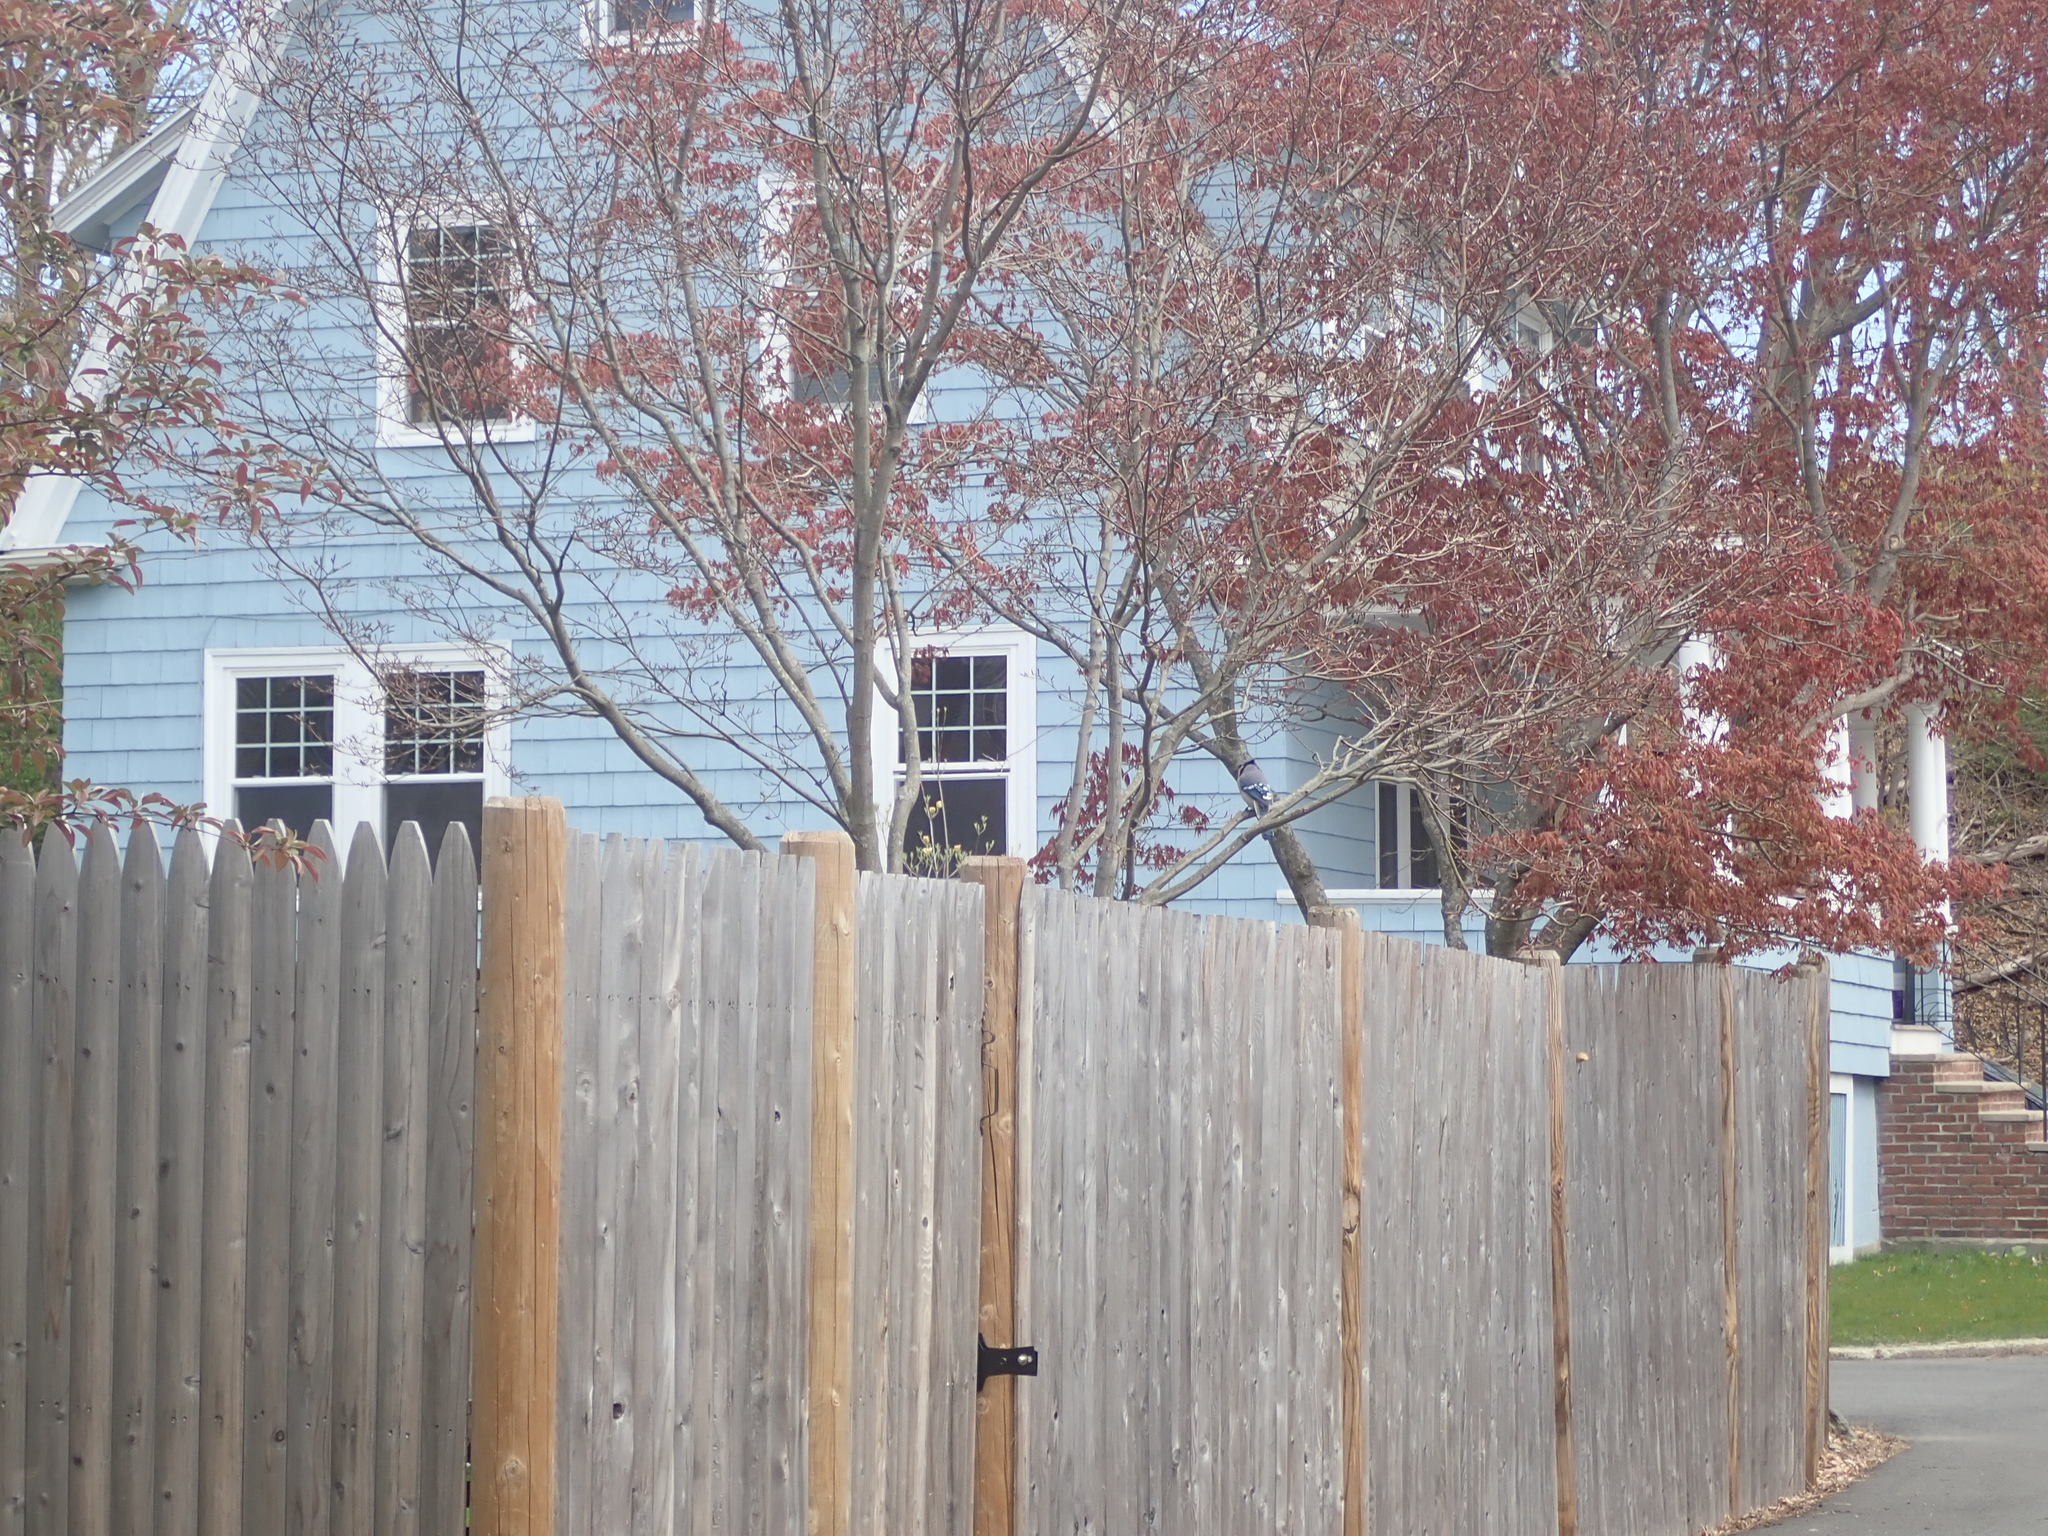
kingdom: Animalia
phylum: Chordata
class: Aves
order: Passeriformes
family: Corvidae
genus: Cyanocitta
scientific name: Cyanocitta cristata
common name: Blue jay
